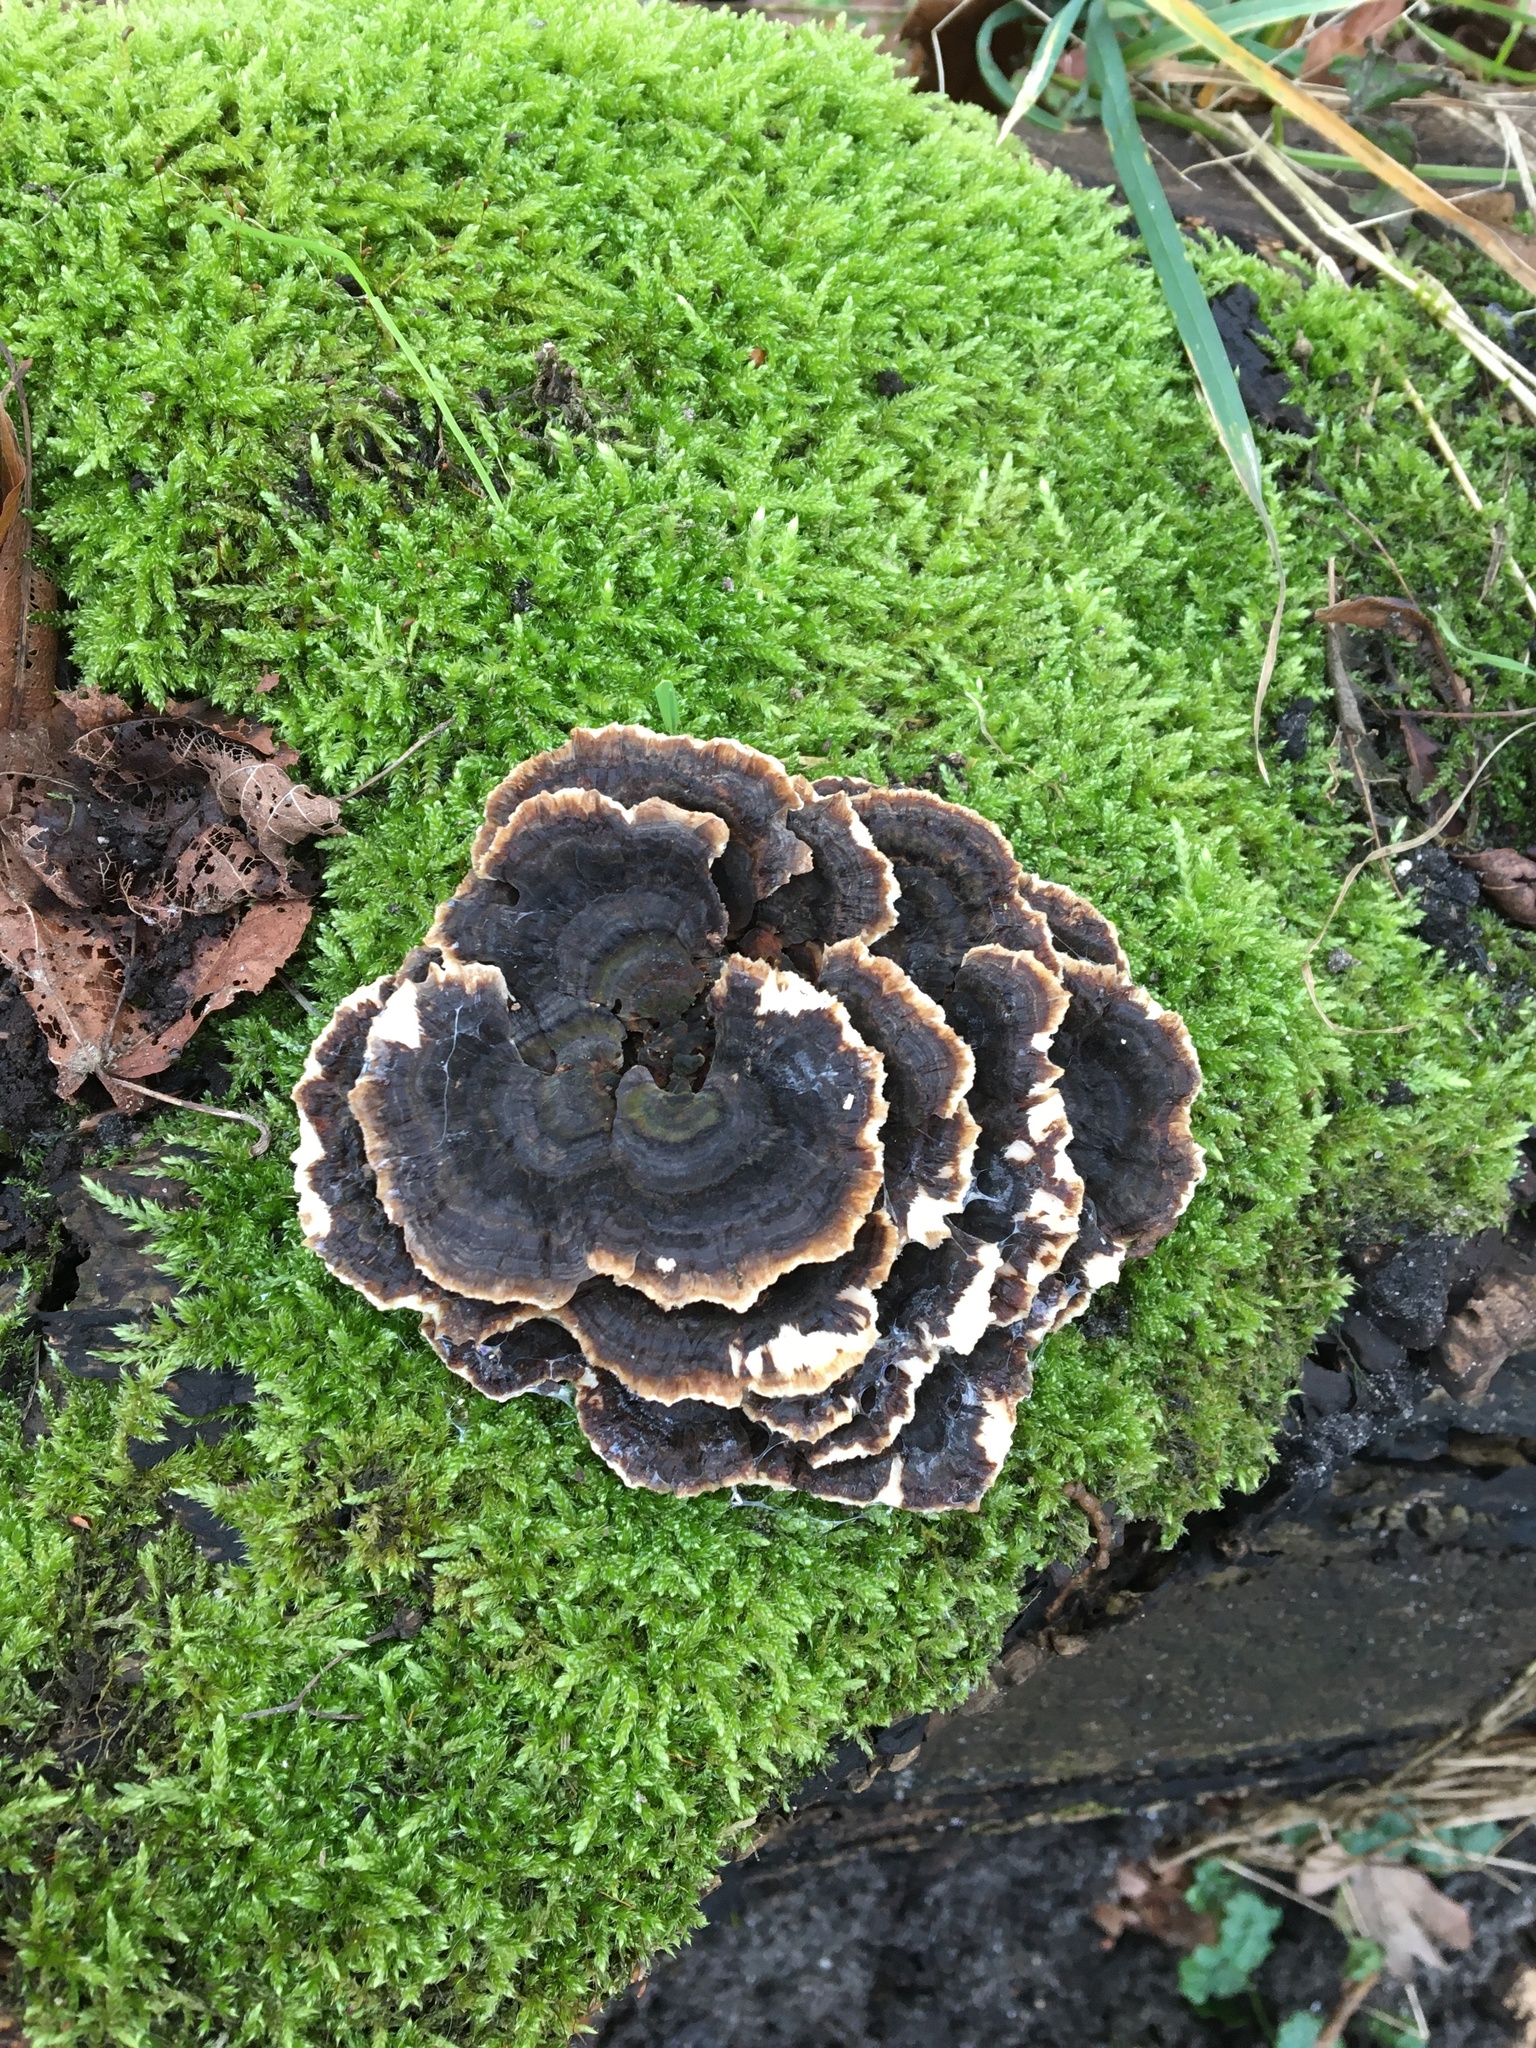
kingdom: Fungi
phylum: Basidiomycota
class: Agaricomycetes
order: Polyporales
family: Polyporaceae
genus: Trametes
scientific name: Trametes versicolor
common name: Turkeytail
